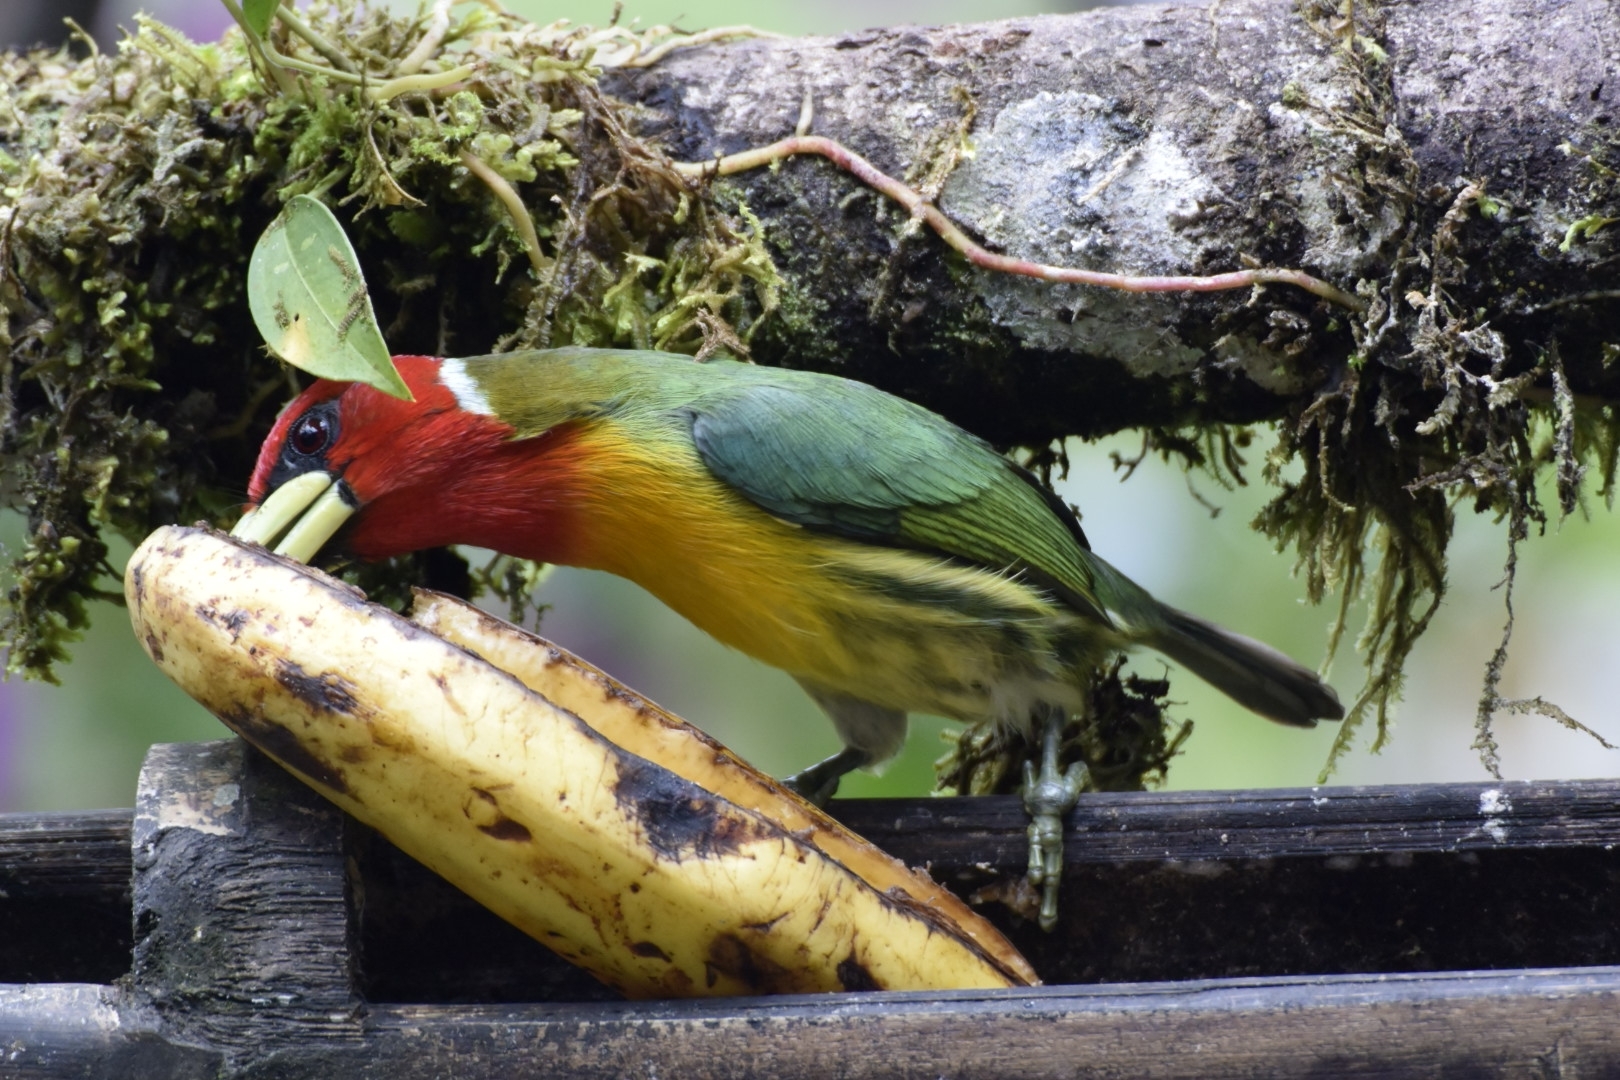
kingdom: Animalia
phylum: Chordata
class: Aves
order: Piciformes
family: Capitonidae
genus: Eubucco
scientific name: Eubucco bourcierii
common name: Red-headed barbet
